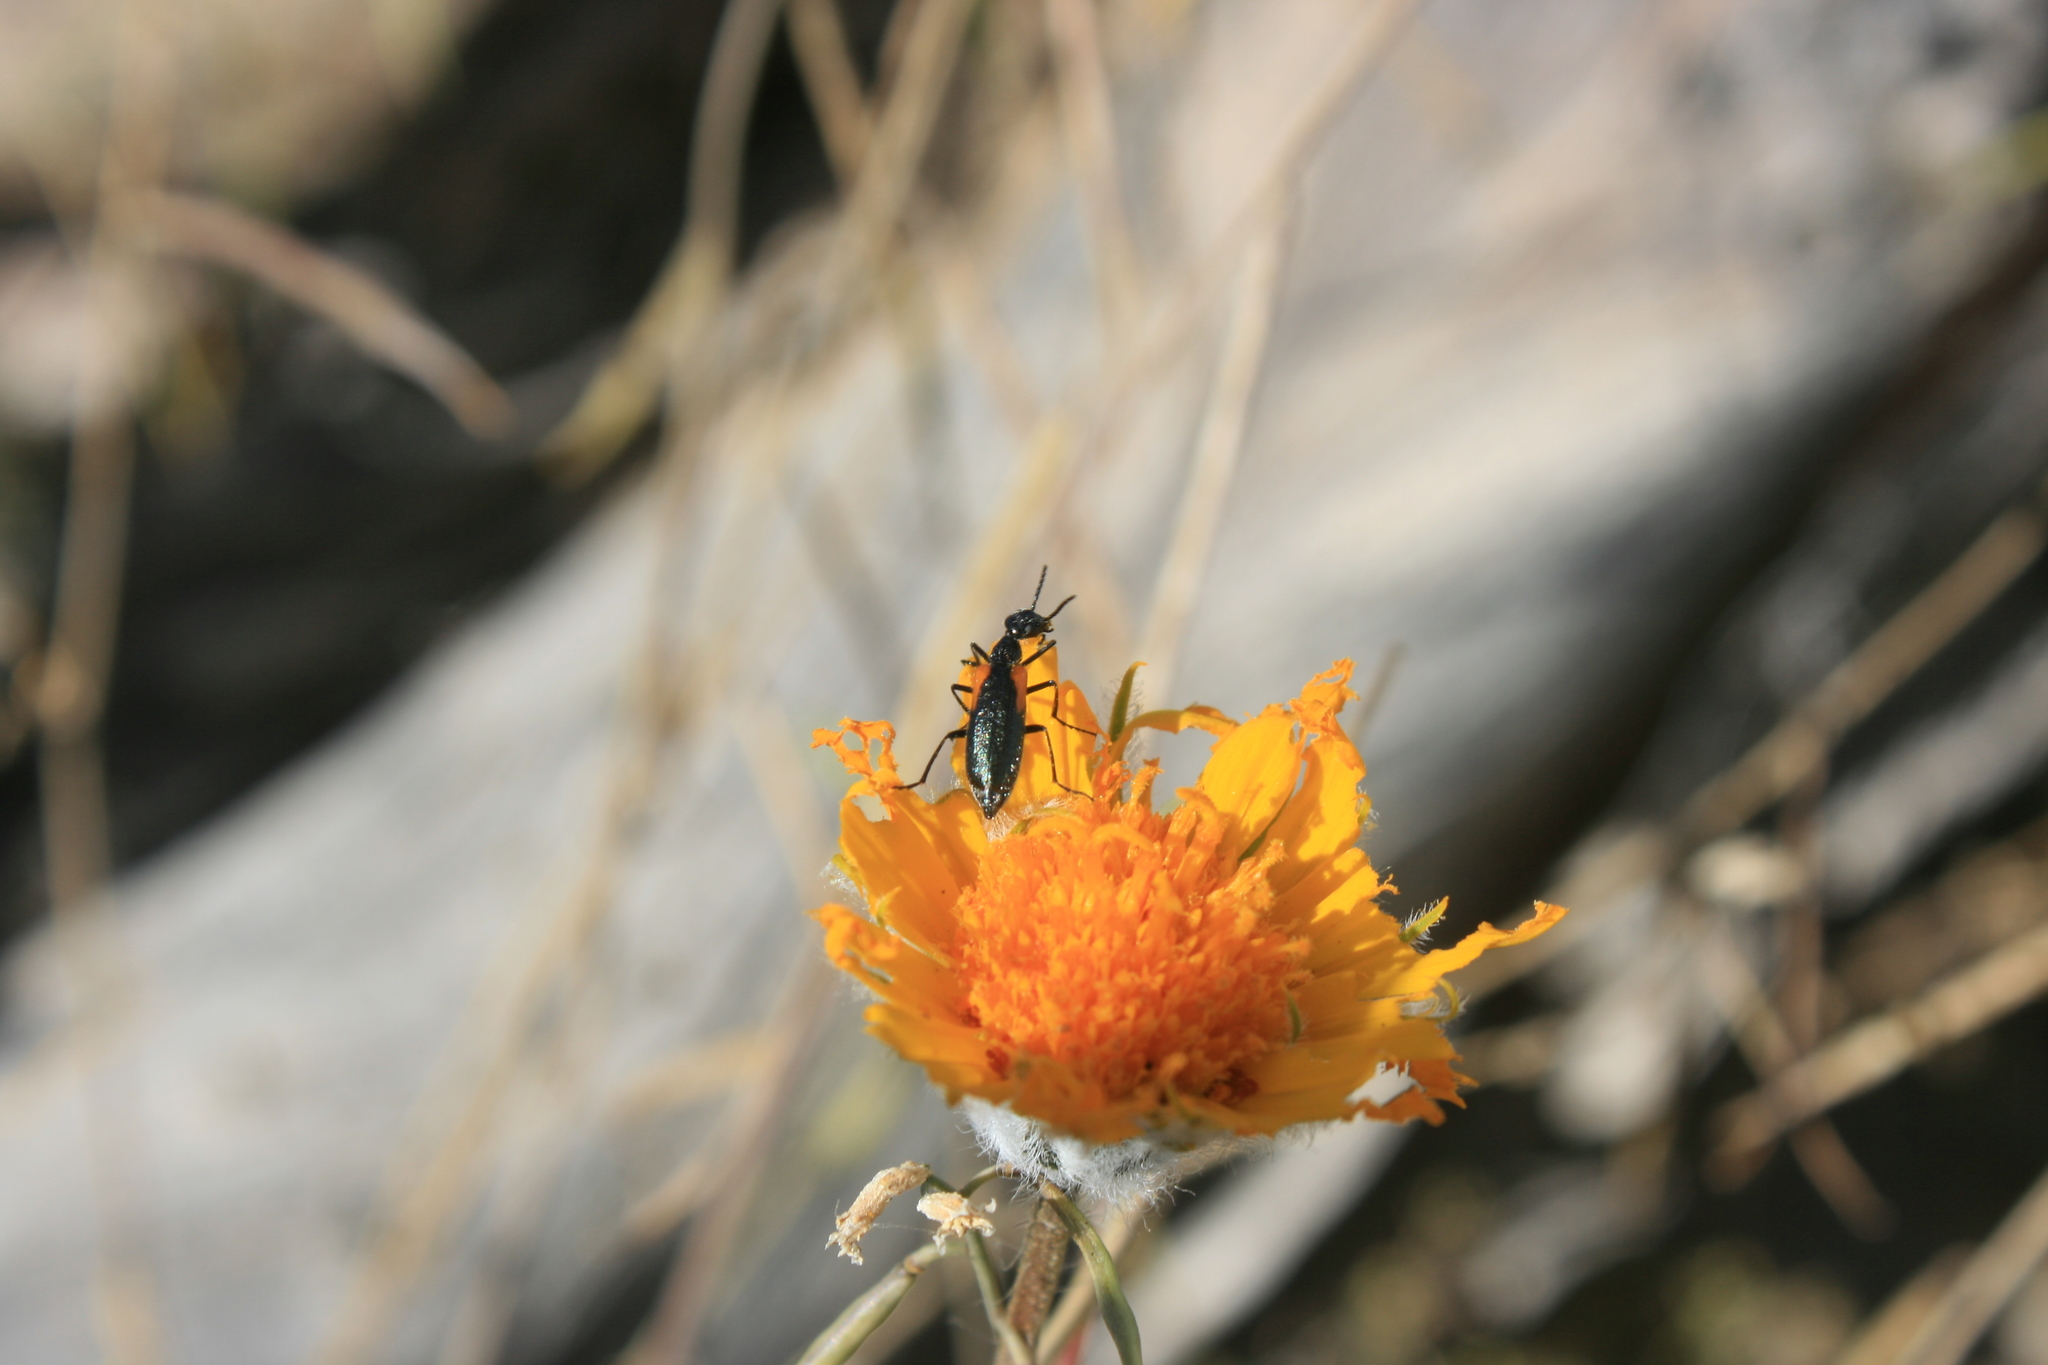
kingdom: Animalia
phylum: Arthropoda
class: Insecta
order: Coleoptera
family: Meloidae
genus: Eupompha
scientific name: Eupompha elegans
